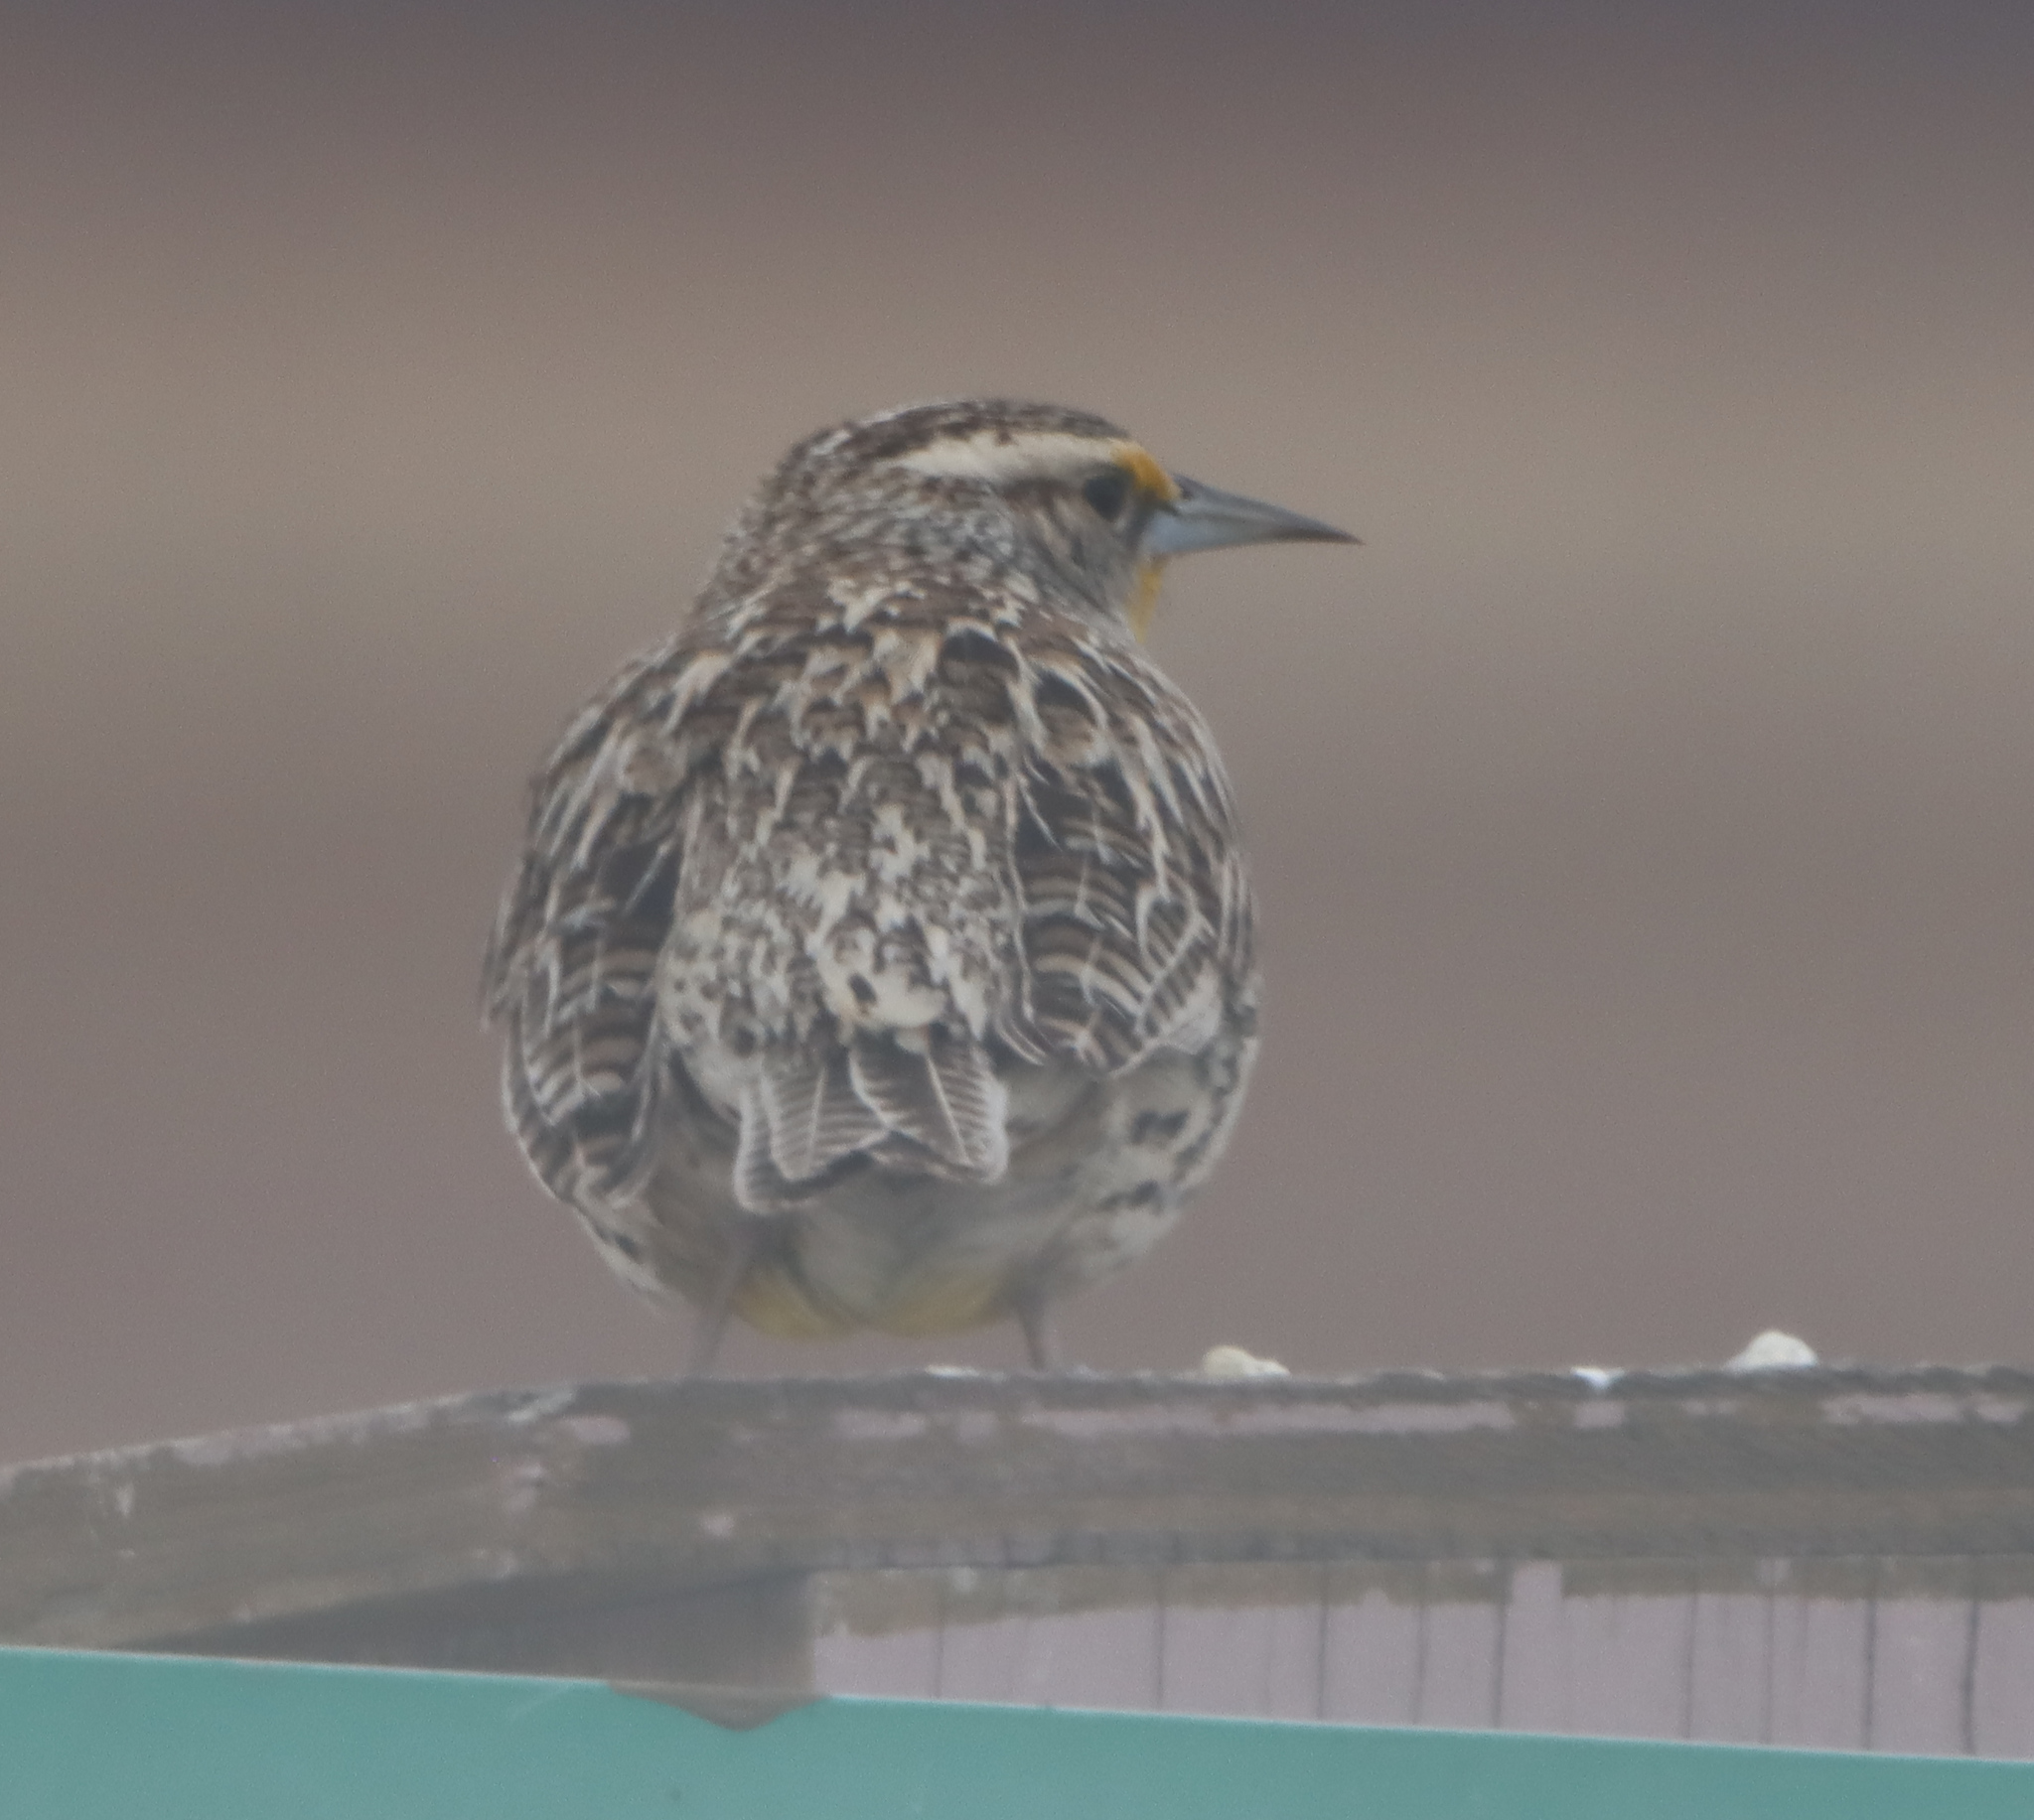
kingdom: Animalia
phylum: Chordata
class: Aves
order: Passeriformes
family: Icteridae
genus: Sturnella
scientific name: Sturnella neglecta
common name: Western meadowlark
